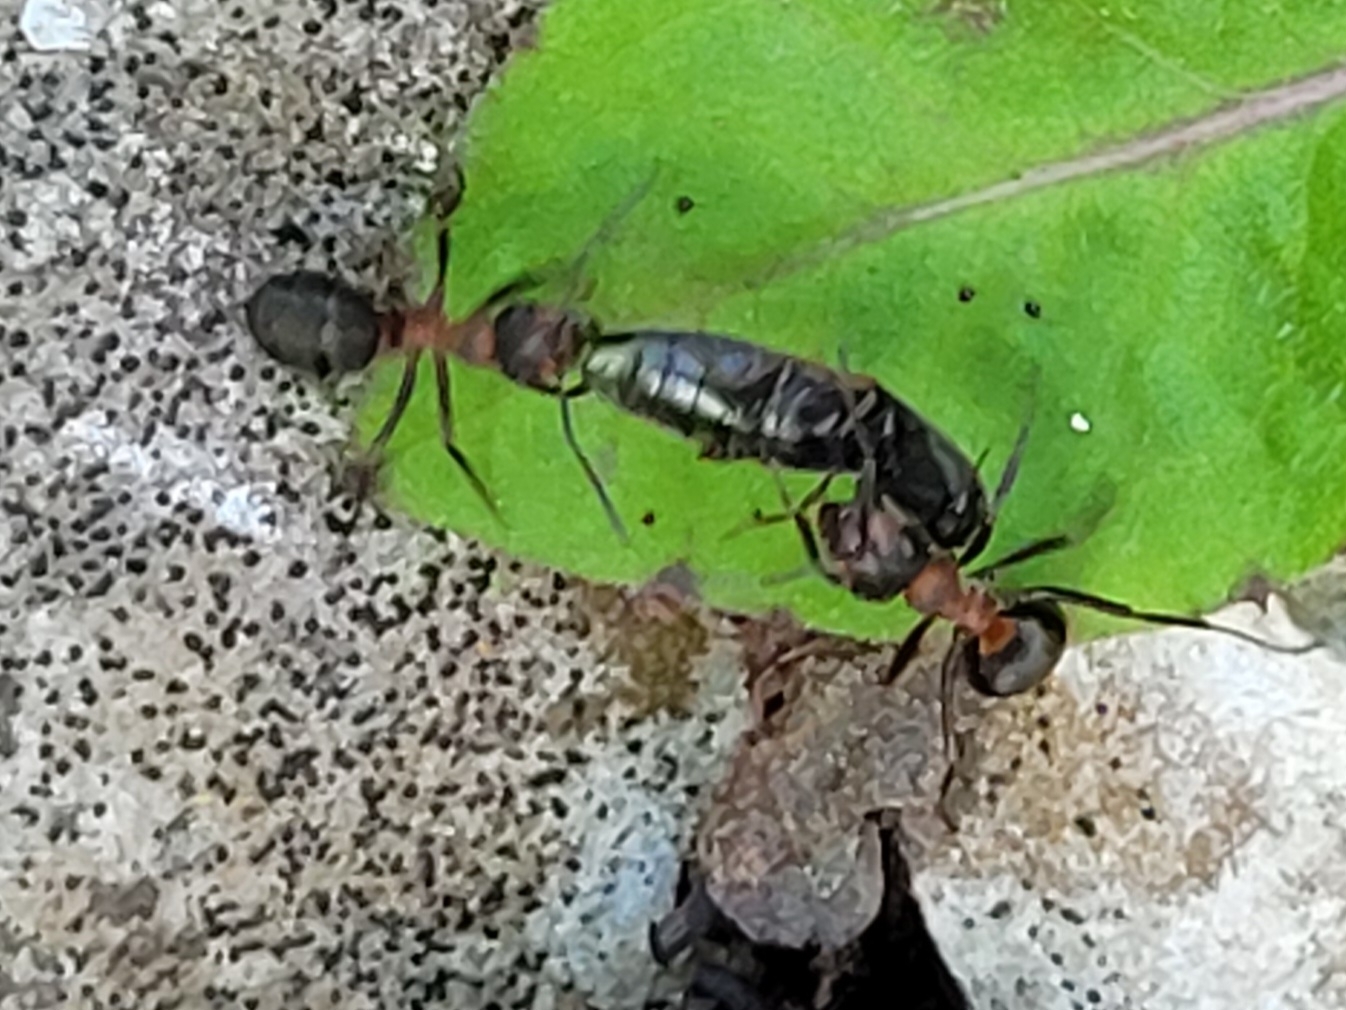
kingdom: Animalia
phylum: Arthropoda
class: Insecta
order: Hymenoptera
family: Formicidae
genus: Formica
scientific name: Formica
